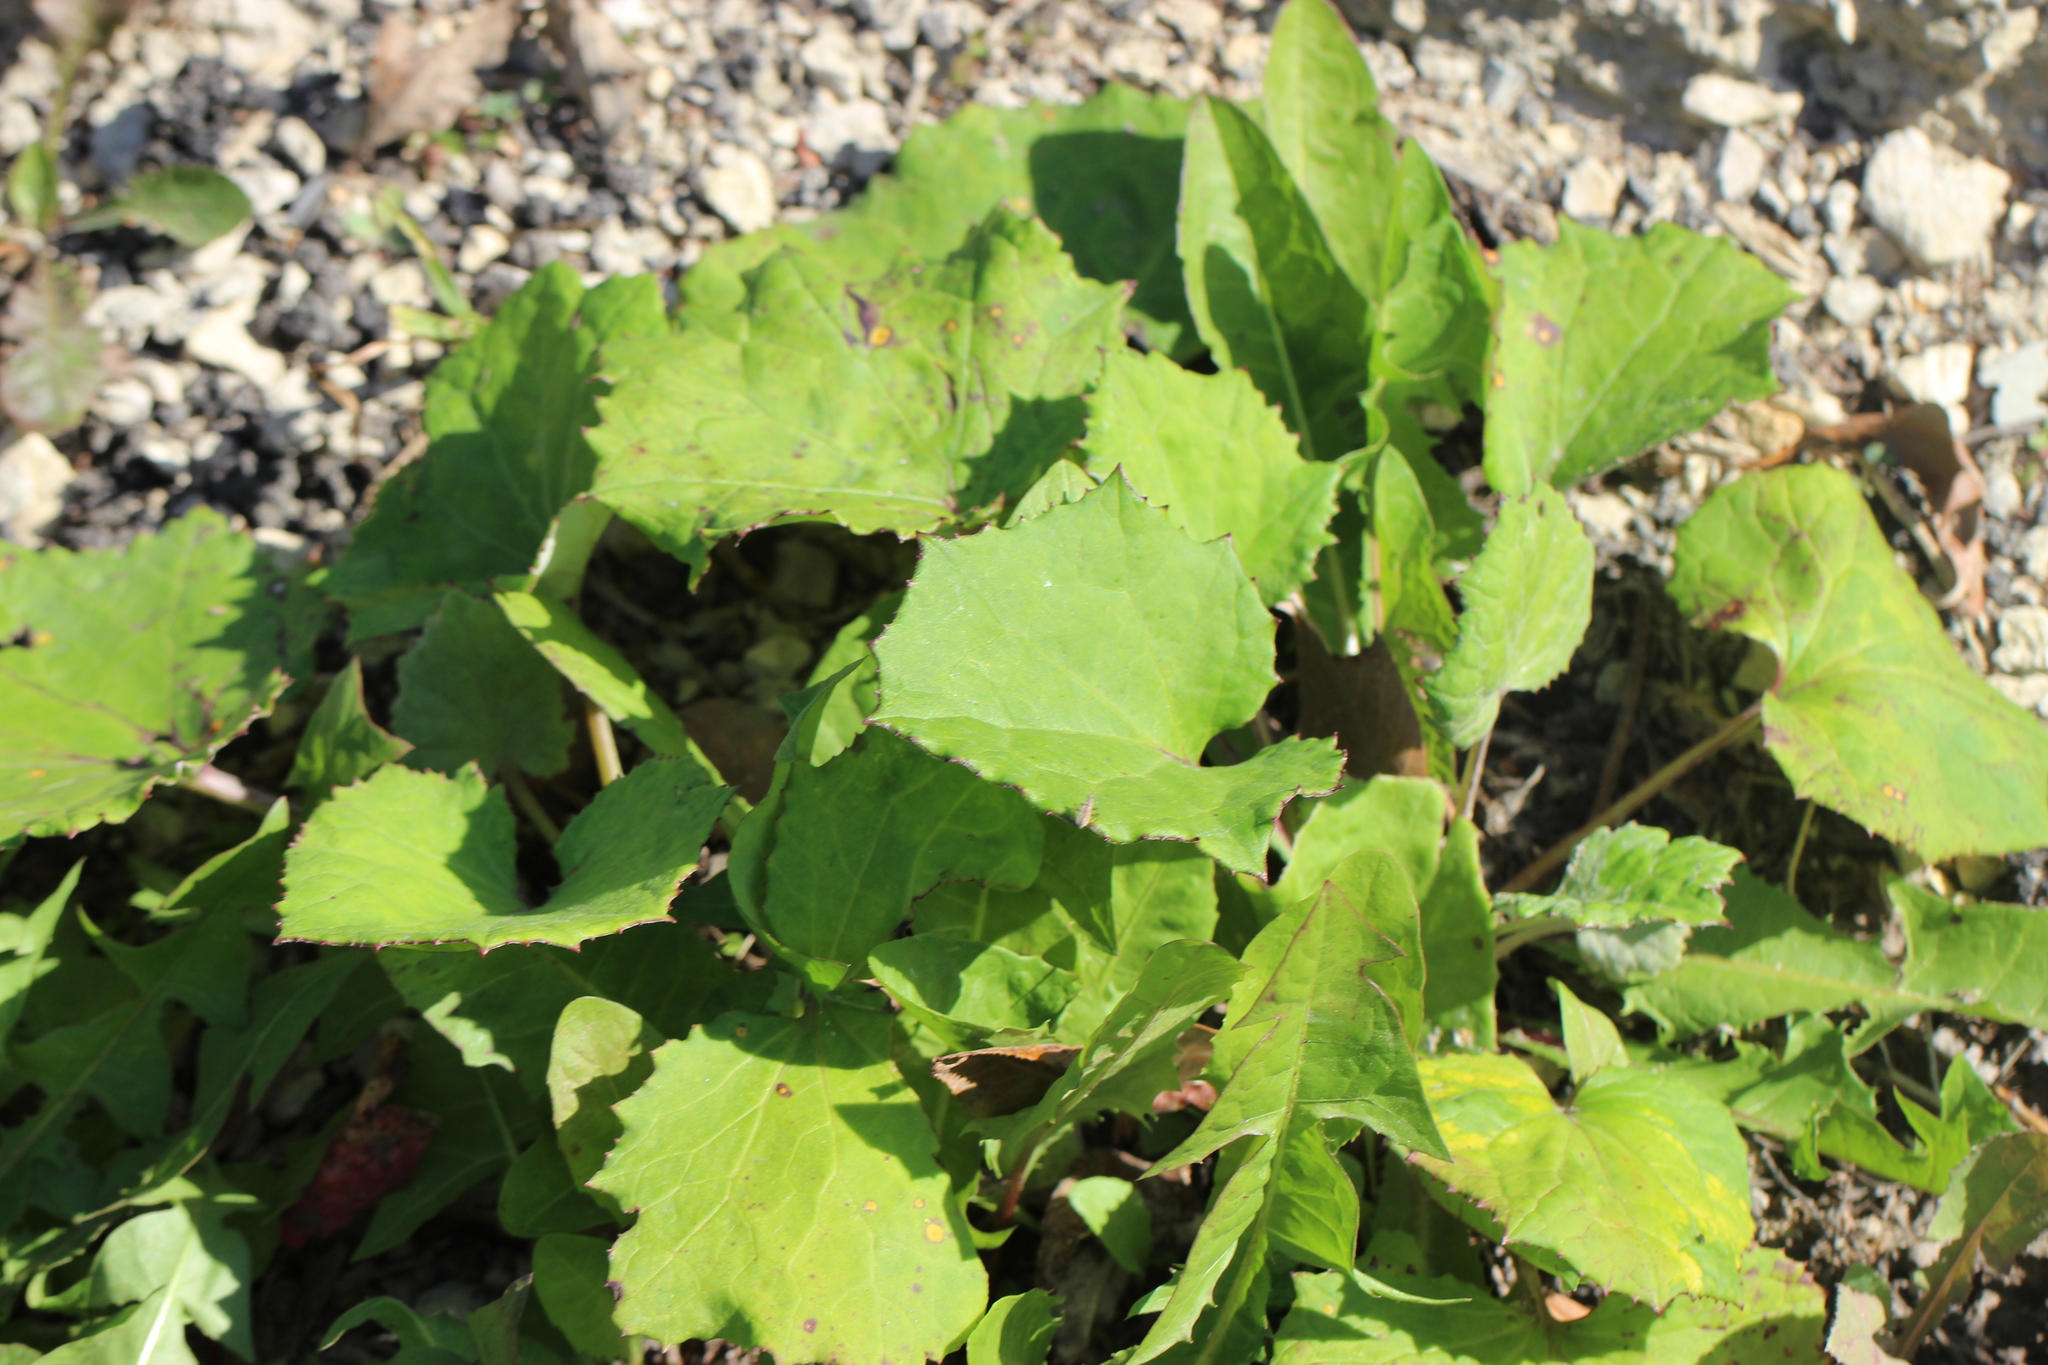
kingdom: Plantae
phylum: Tracheophyta
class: Magnoliopsida
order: Asterales
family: Asteraceae
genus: Tussilago
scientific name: Tussilago farfara
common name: Coltsfoot
